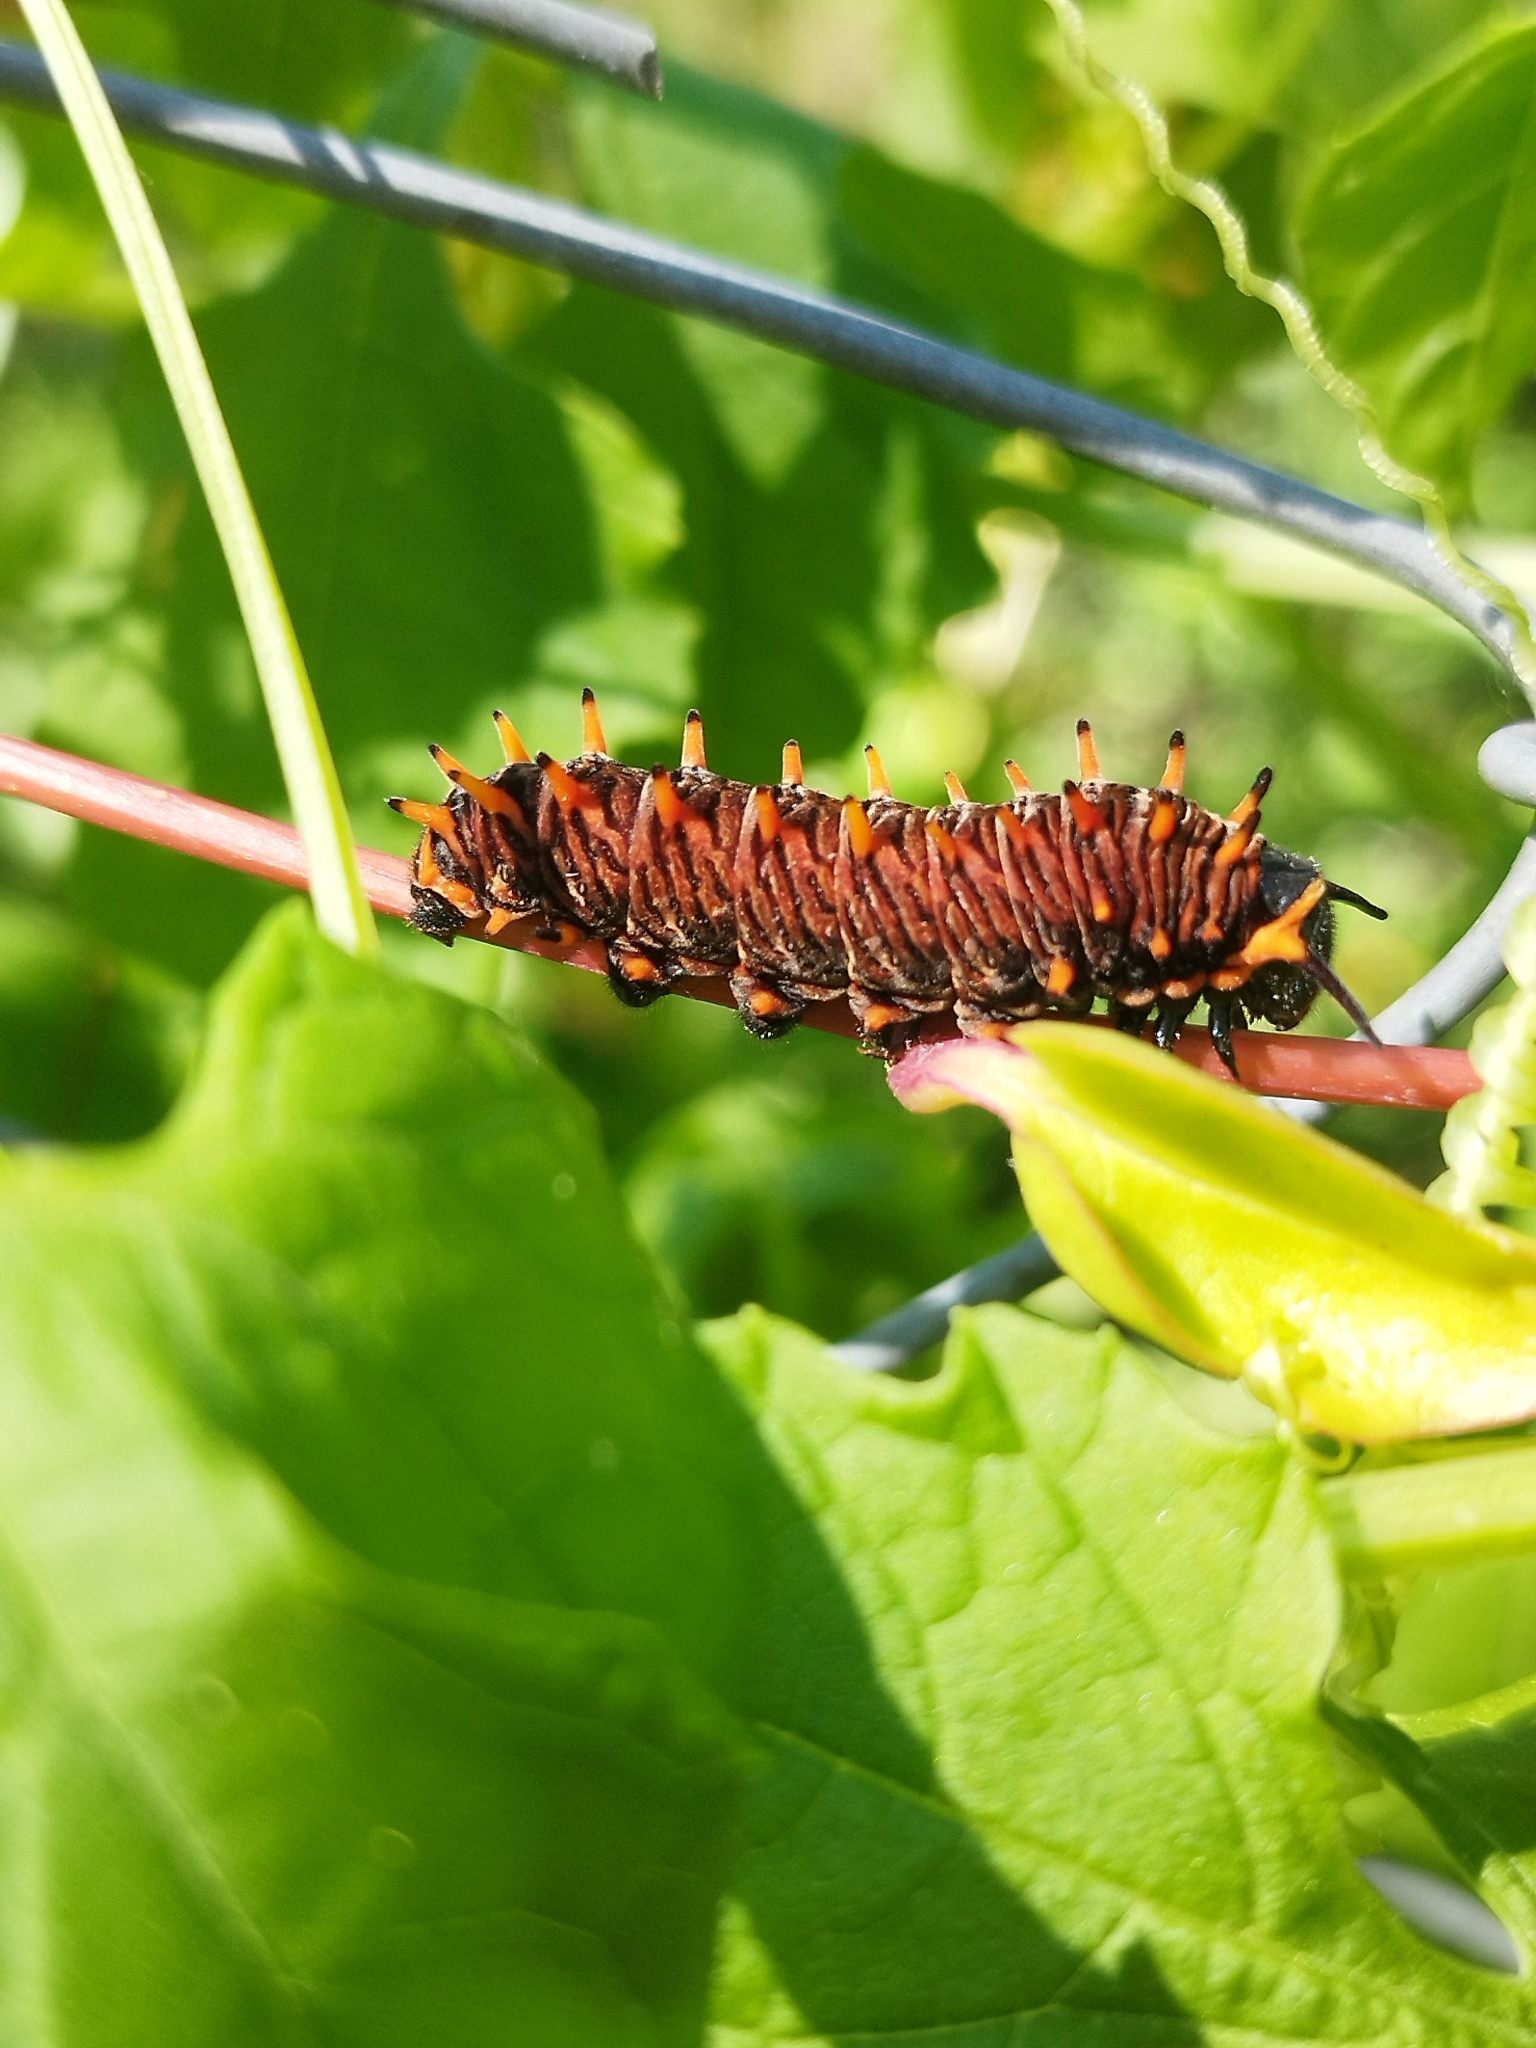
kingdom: Animalia
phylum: Arthropoda
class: Insecta
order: Lepidoptera
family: Papilionidae
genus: Battus
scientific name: Battus polydamas
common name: Polydamas swallowtail
